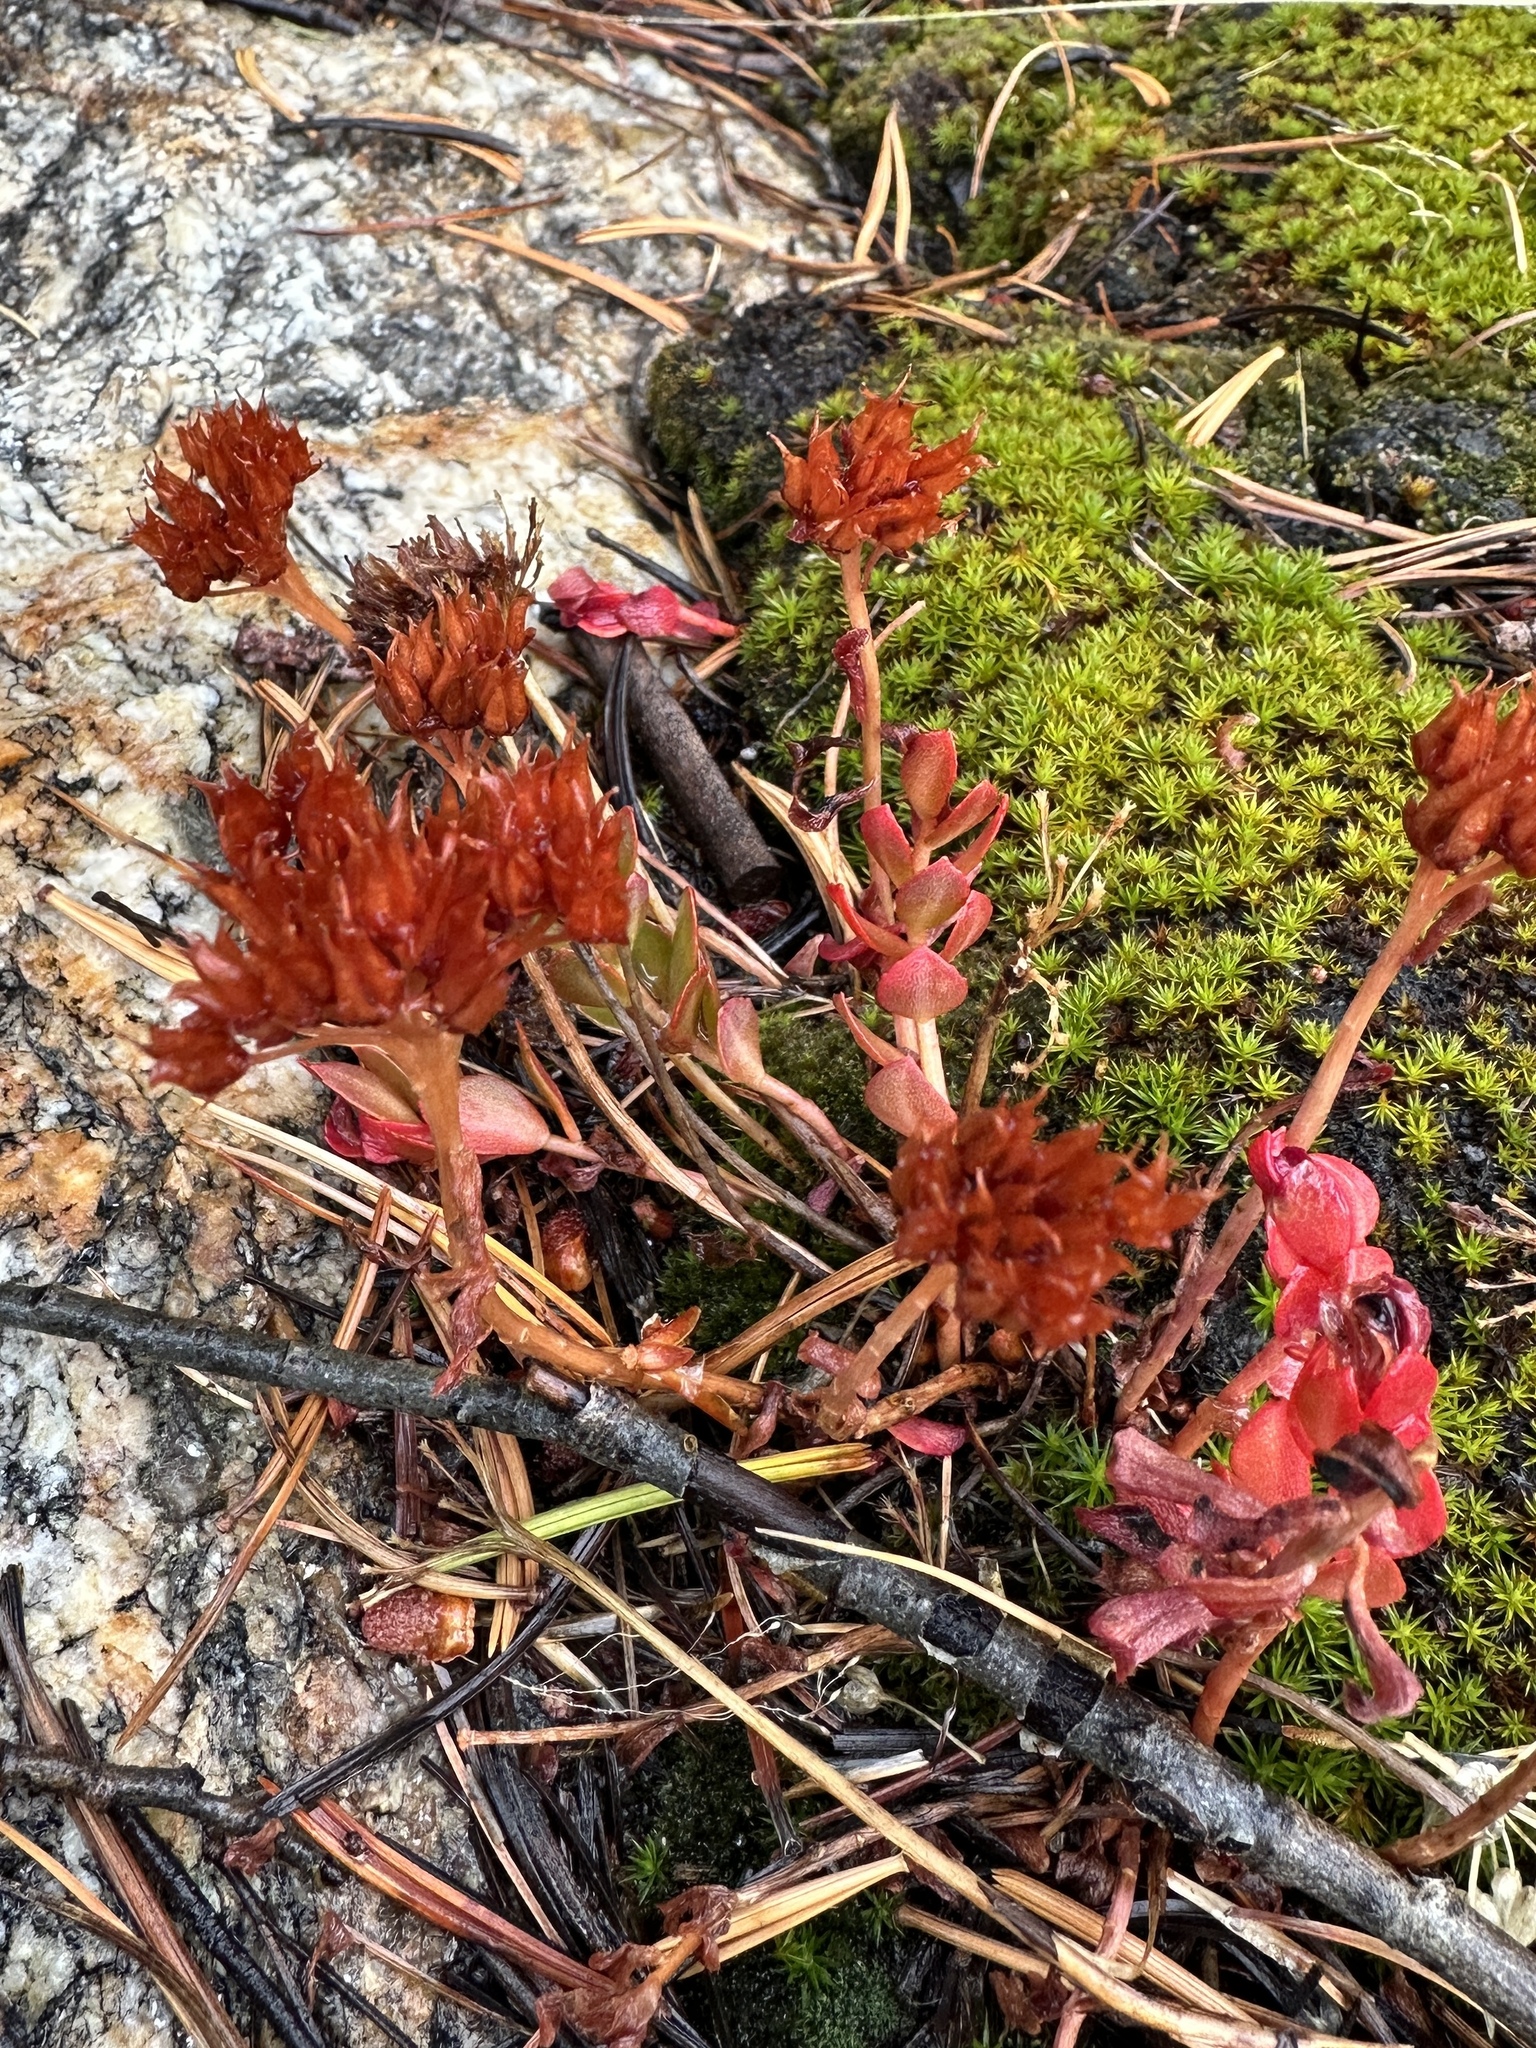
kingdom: Plantae
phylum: Tracheophyta
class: Magnoliopsida
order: Saxifragales
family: Crassulaceae
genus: Rhodiola
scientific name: Rhodiola integrifolia
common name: Western roseroot
